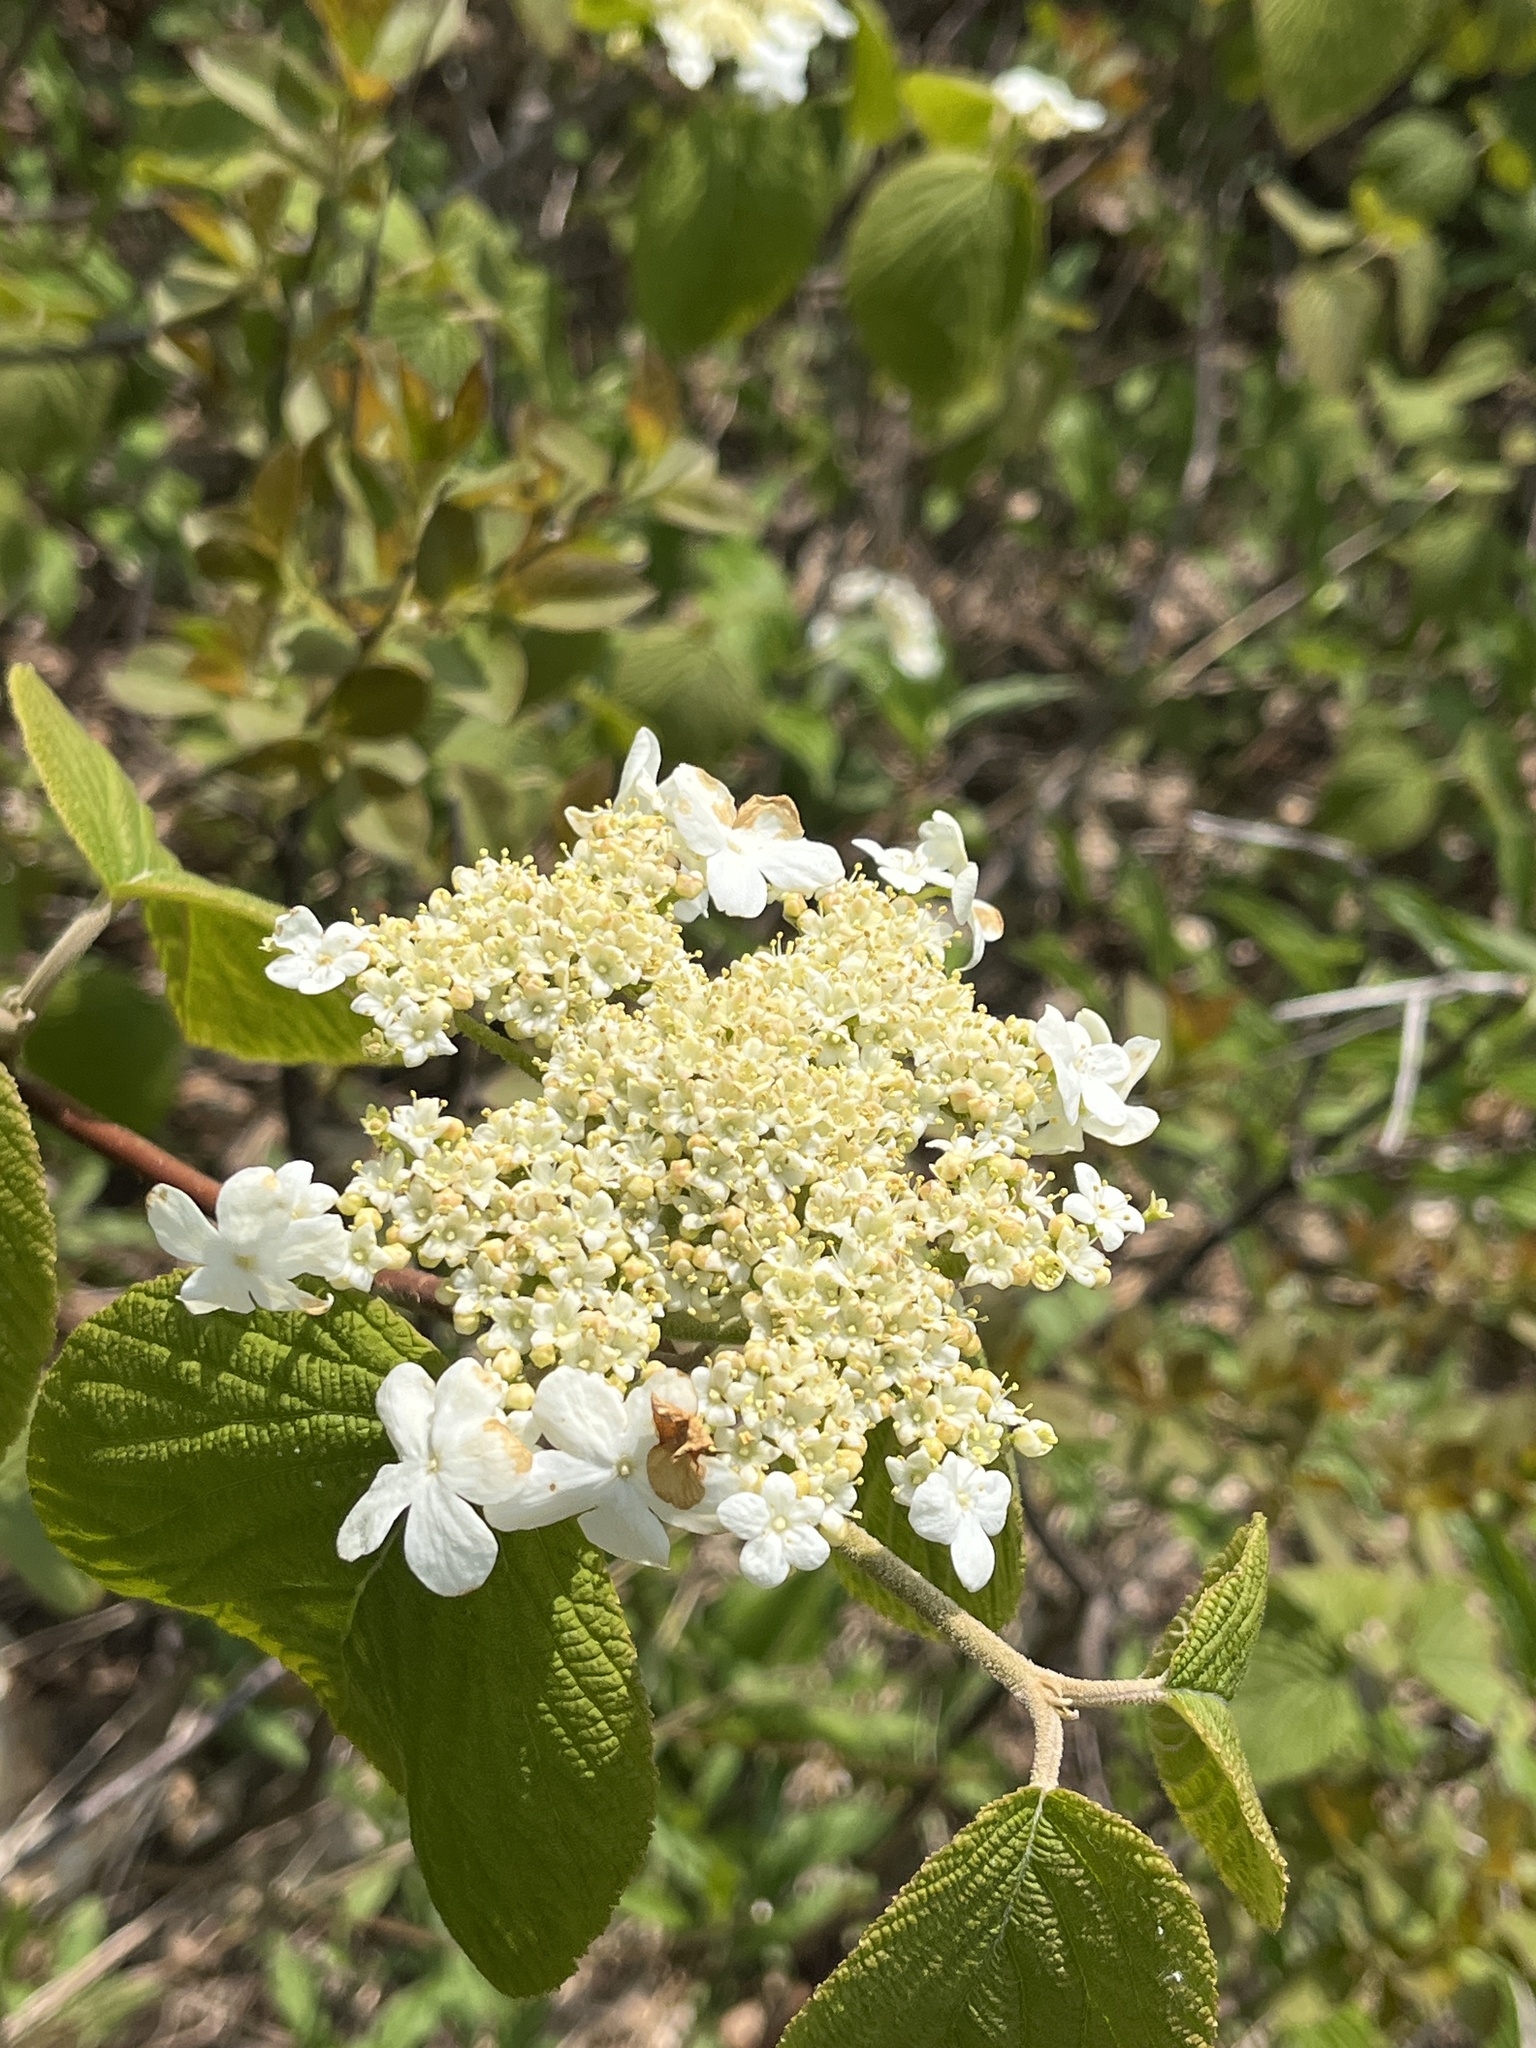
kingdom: Plantae
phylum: Tracheophyta
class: Magnoliopsida
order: Dipsacales
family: Viburnaceae
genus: Viburnum
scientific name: Viburnum lantanoides
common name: Hobblebush
